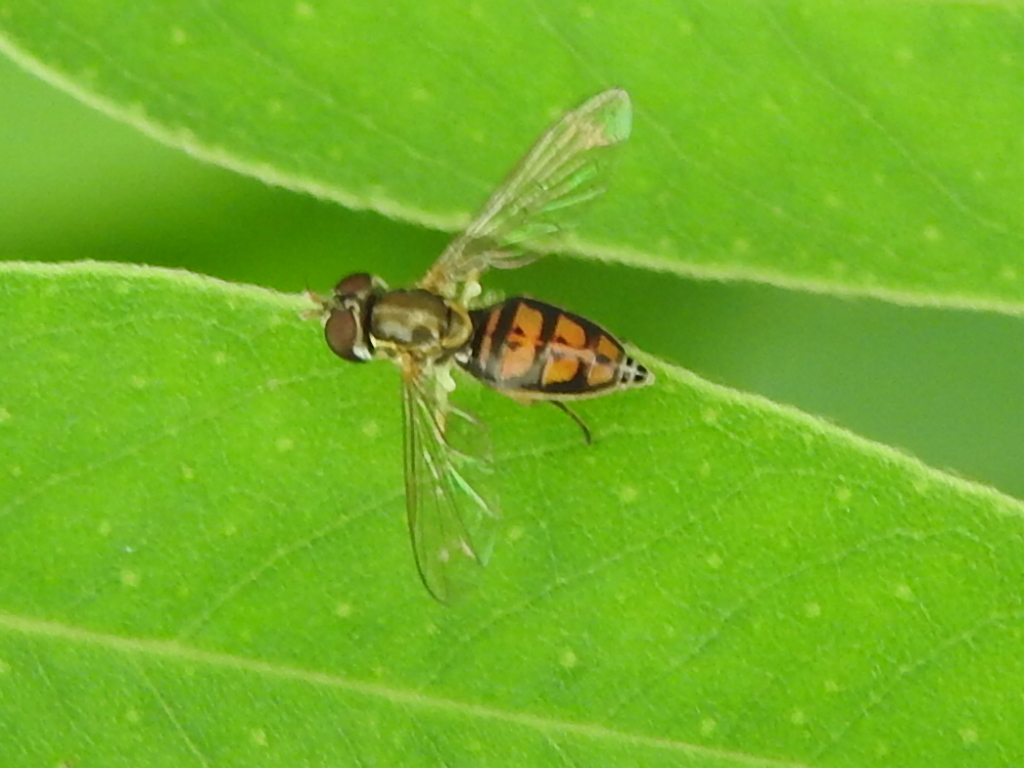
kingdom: Animalia
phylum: Arthropoda
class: Insecta
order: Diptera
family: Syrphidae
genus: Toxomerus
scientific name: Toxomerus marginatus
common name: Syrphid fly
